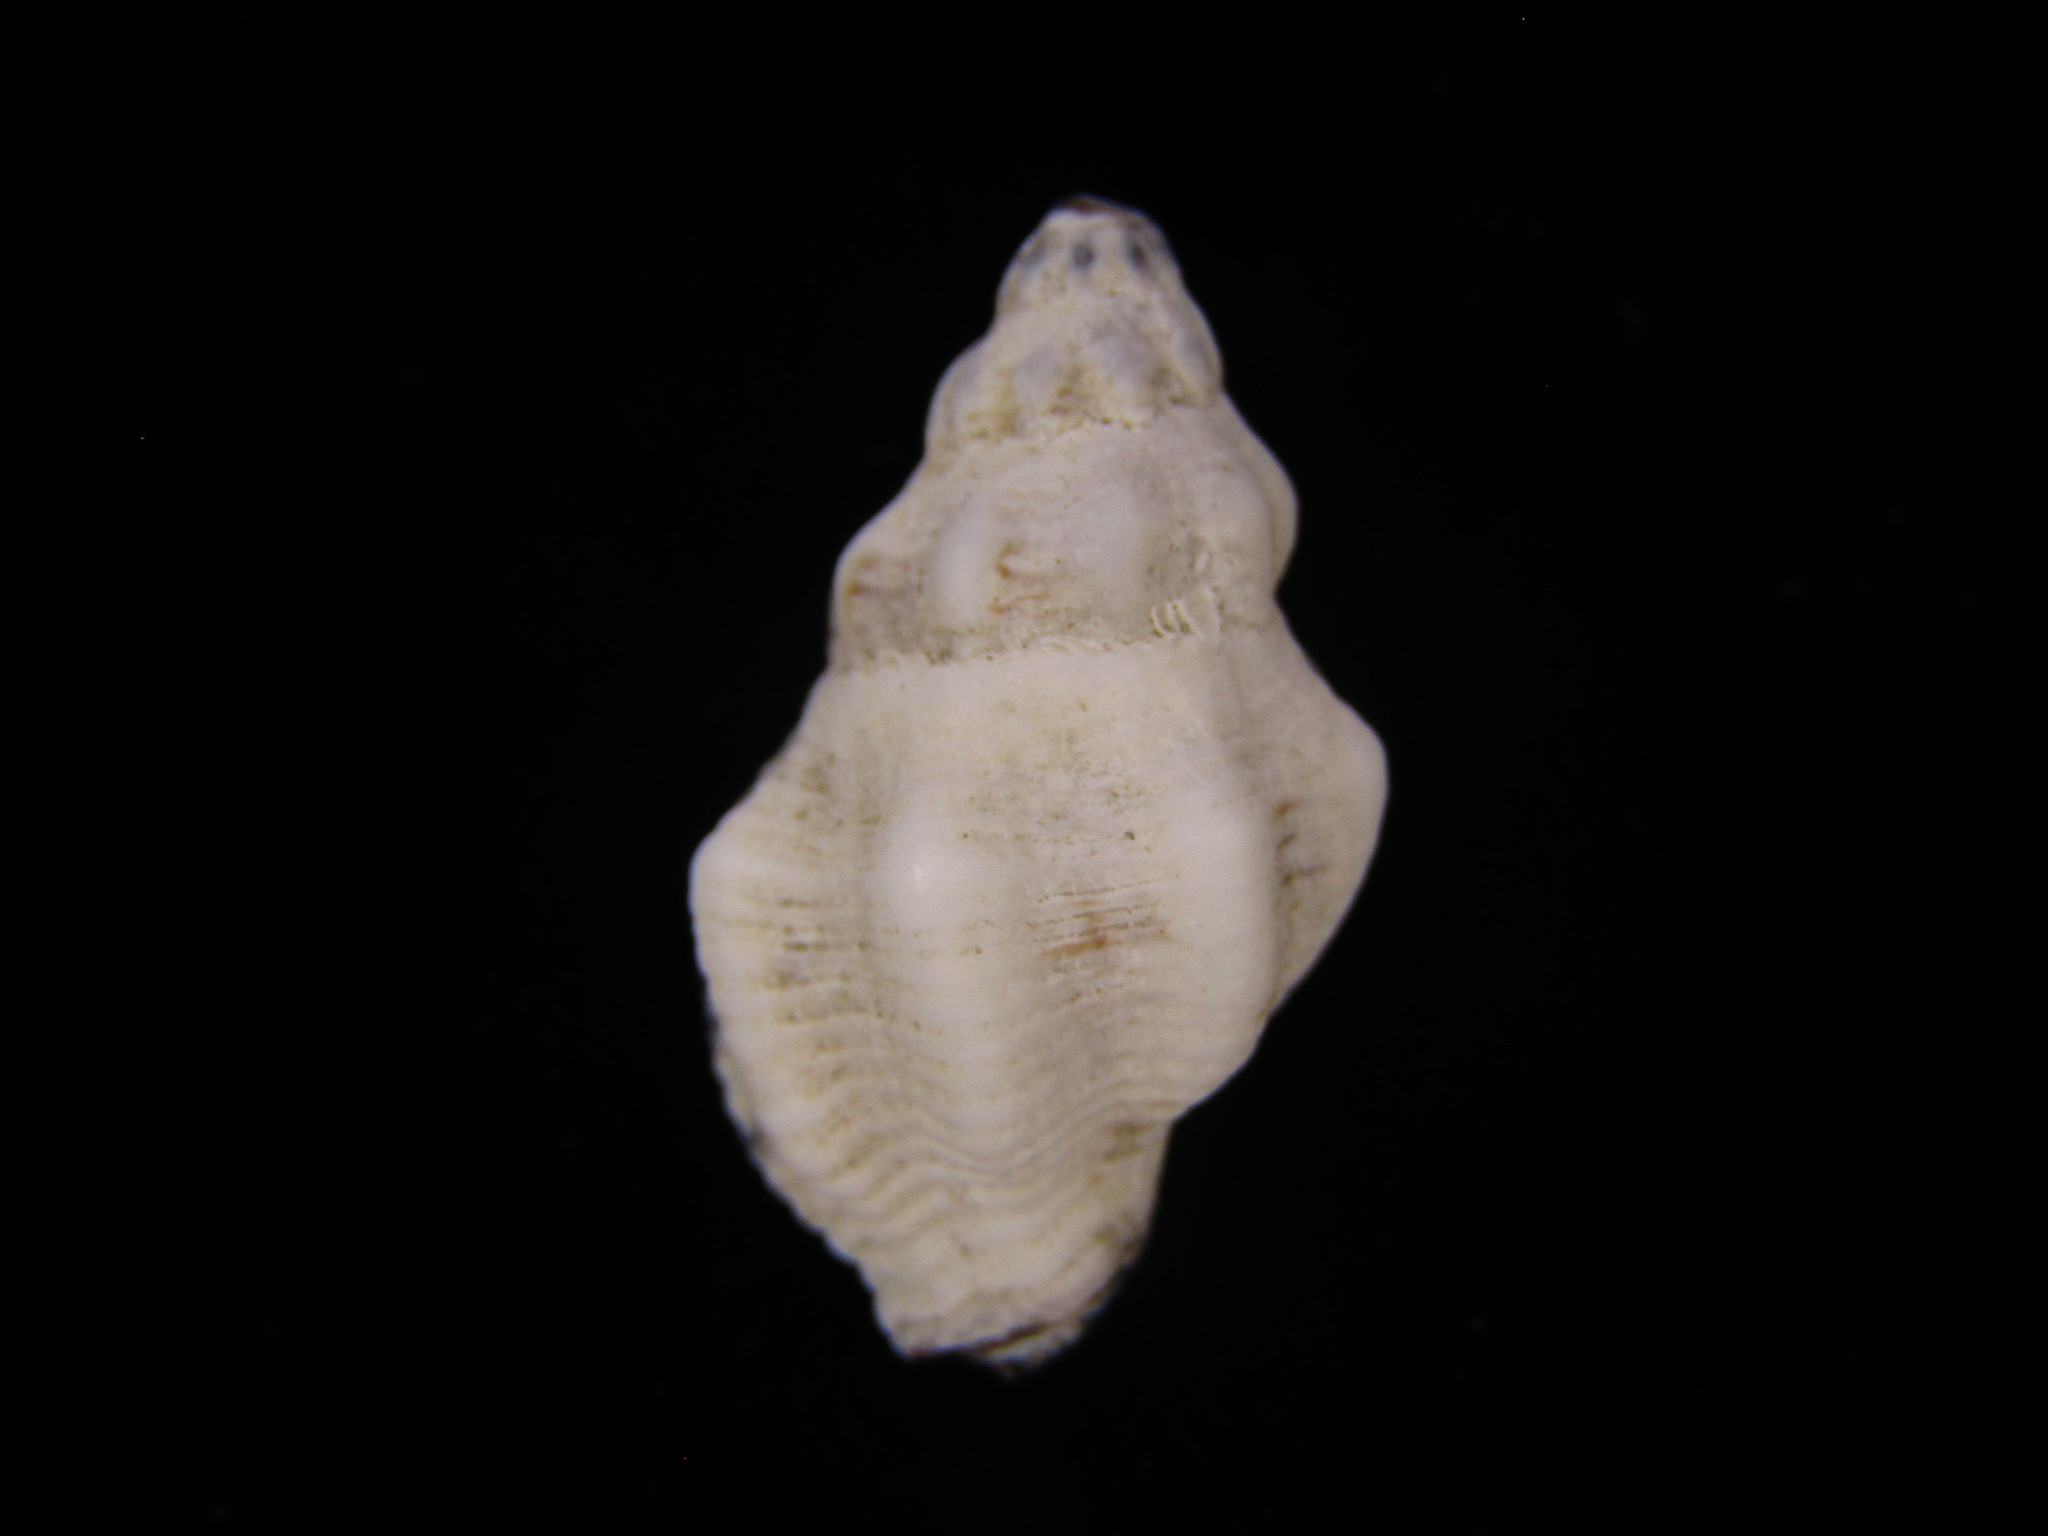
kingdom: Animalia
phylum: Mollusca
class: Gastropoda
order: Neogastropoda
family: Muricidae
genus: Ergalatax
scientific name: Ergalatax contracta
